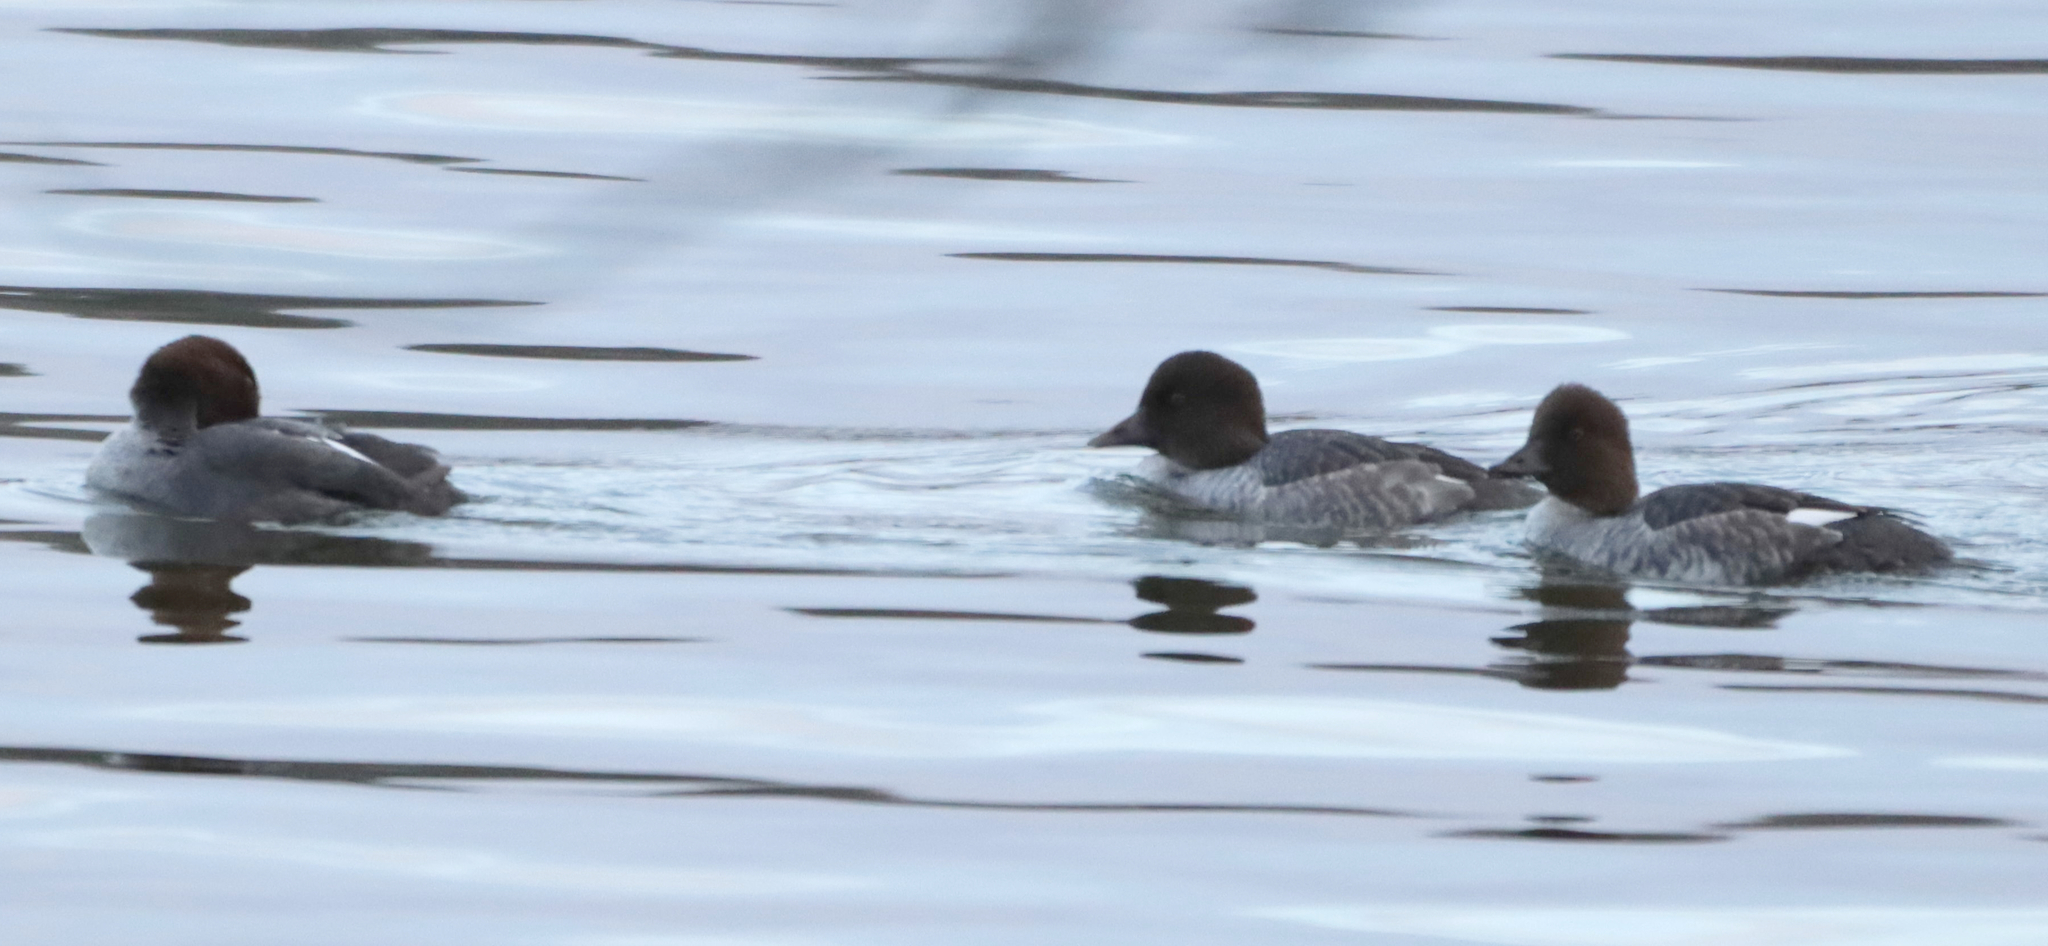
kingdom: Animalia
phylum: Chordata
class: Aves
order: Anseriformes
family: Anatidae
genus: Bucephala
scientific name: Bucephala clangula
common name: Common goldeneye
